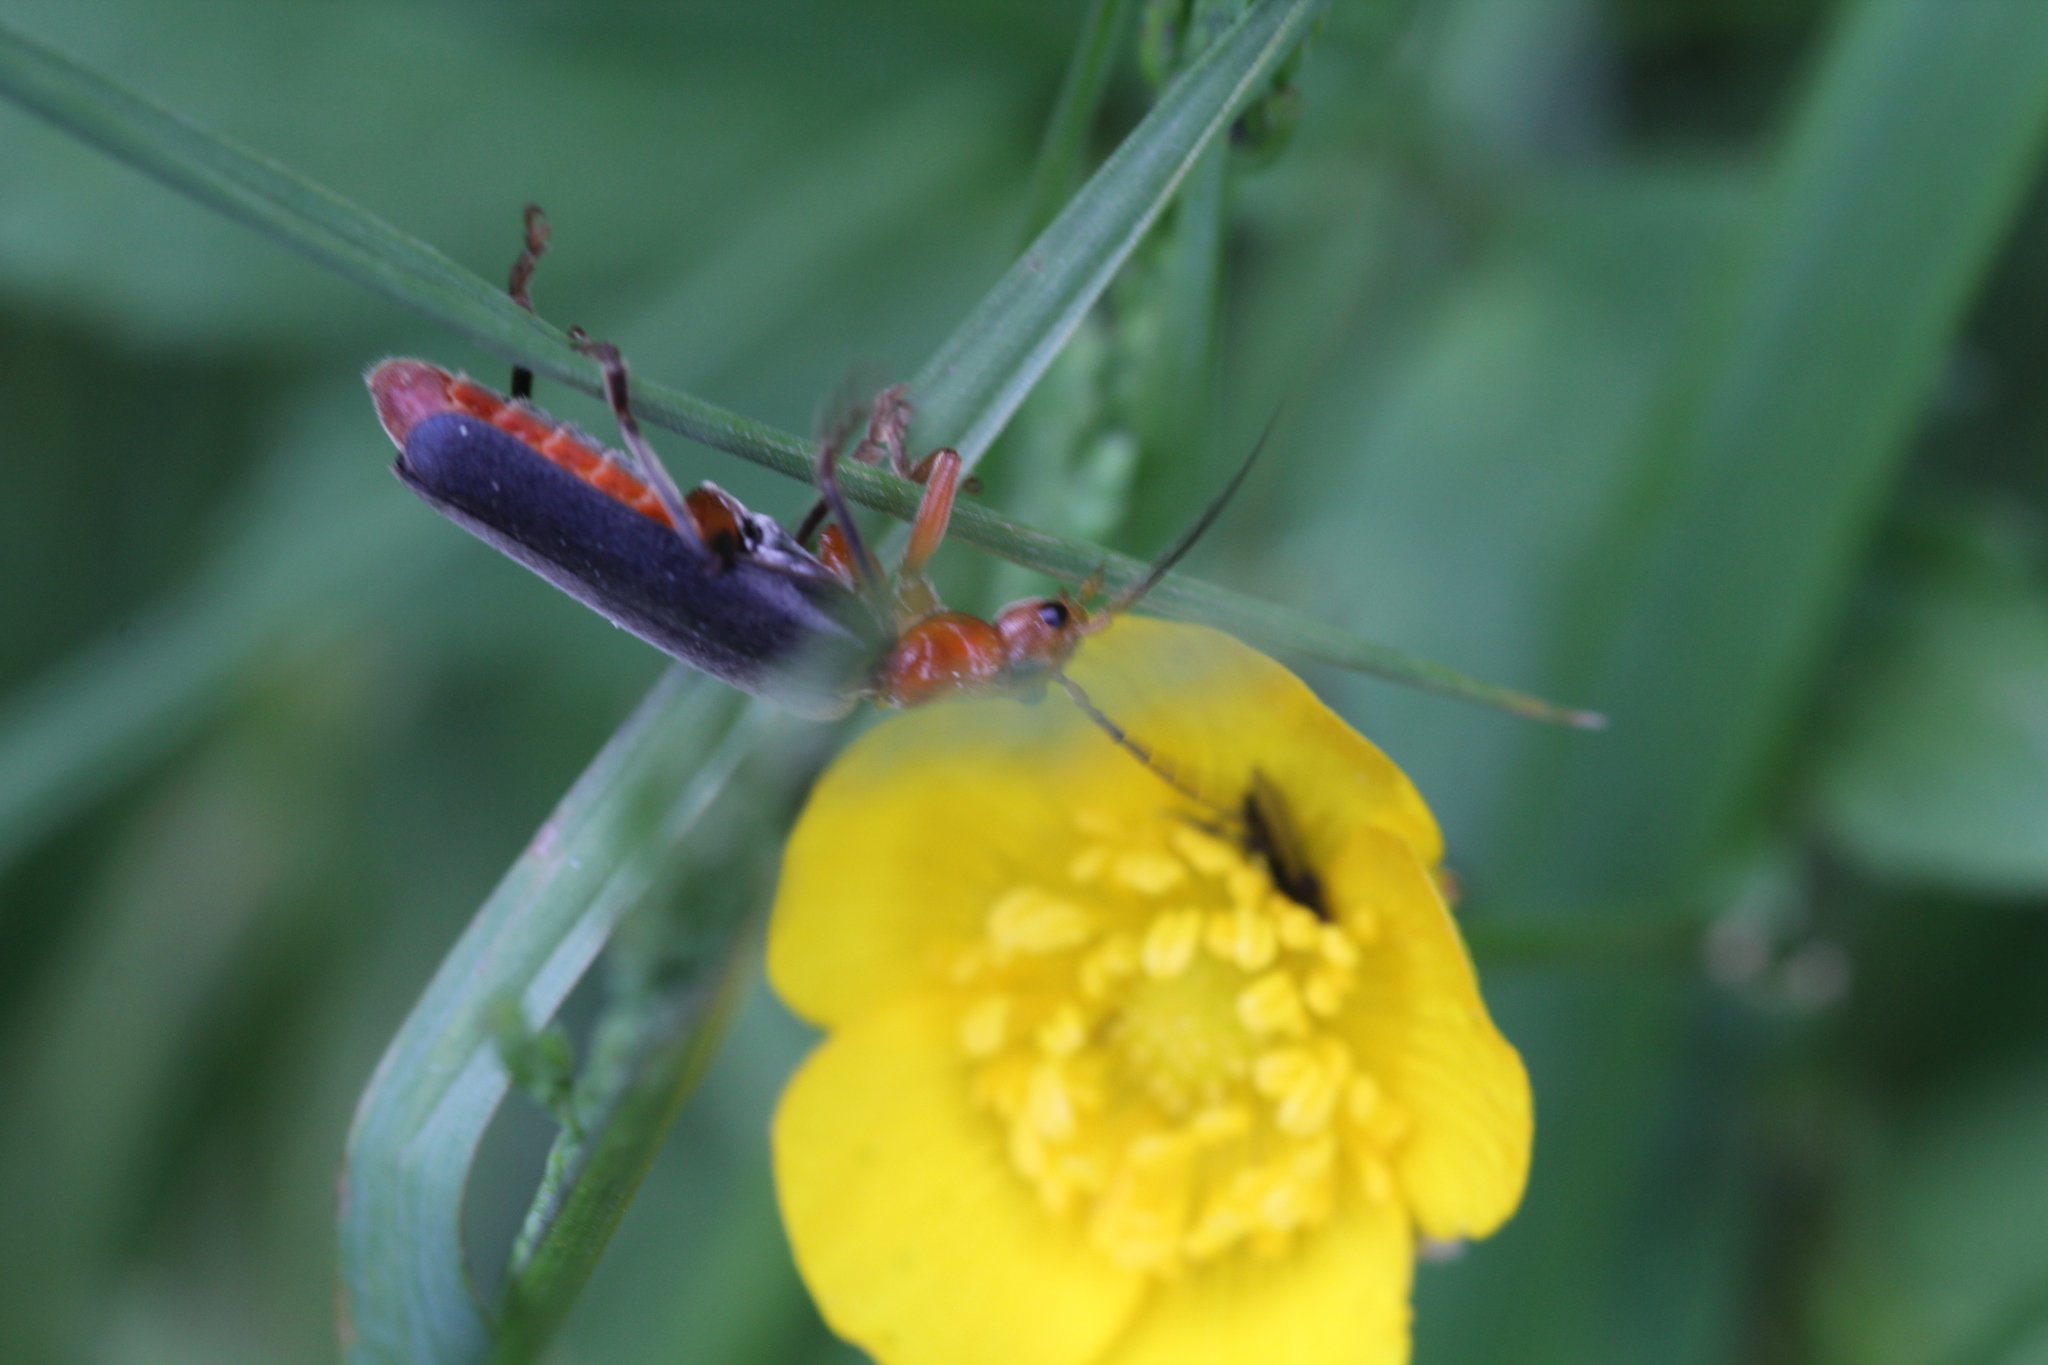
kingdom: Animalia
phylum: Arthropoda
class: Insecta
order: Coleoptera
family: Cantharidae
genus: Cantharis
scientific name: Cantharis livida
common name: Livid soldier beetle
